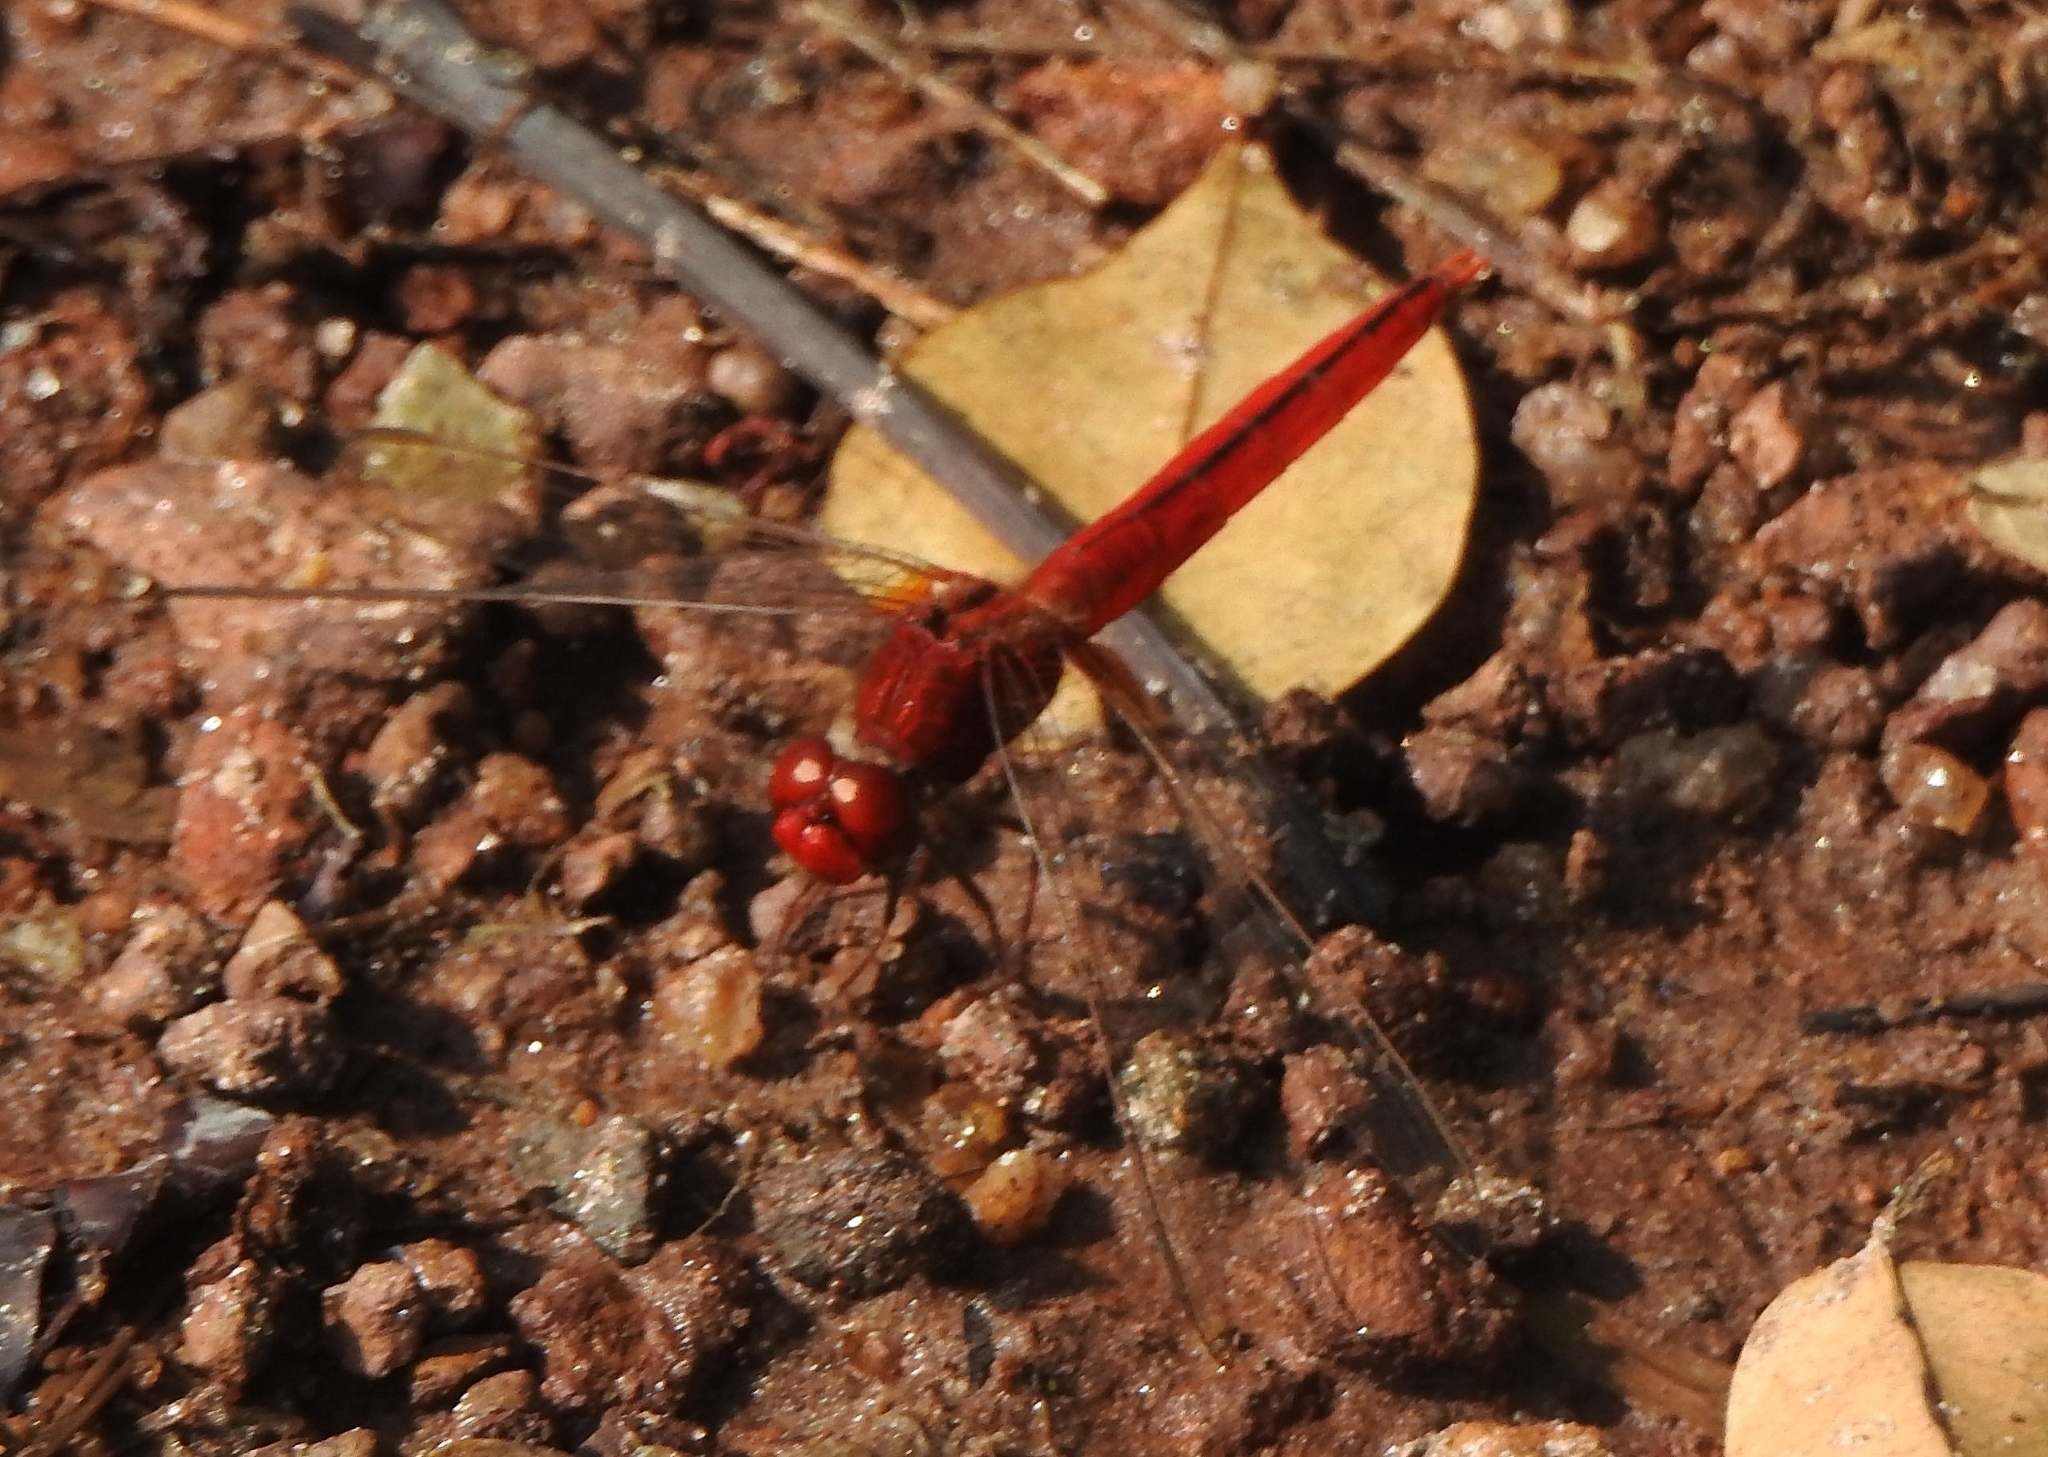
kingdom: Animalia
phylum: Arthropoda
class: Insecta
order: Odonata
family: Libellulidae
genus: Crocothemis
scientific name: Crocothemis servilia
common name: Scarlet skimmer
